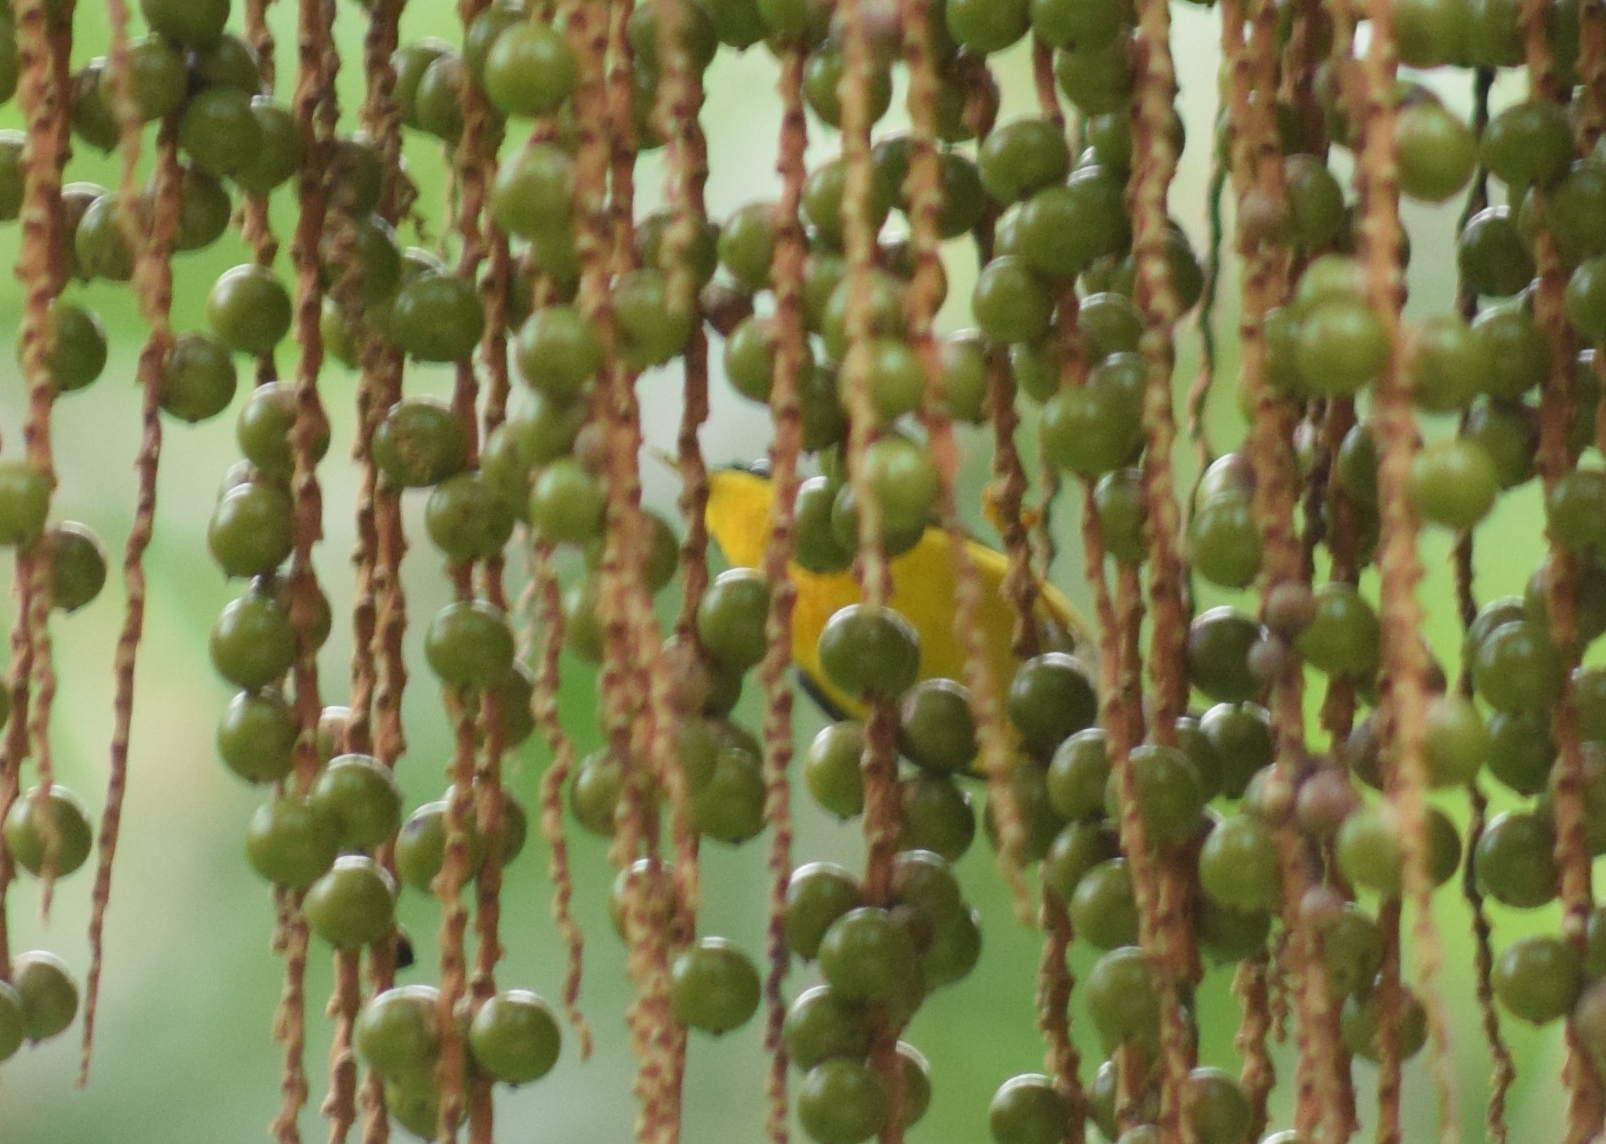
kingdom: Animalia
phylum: Chordata
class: Aves
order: Passeriformes
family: Parulidae
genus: Setophaga
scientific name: Setophaga pitiayumi
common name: Tropical parula
